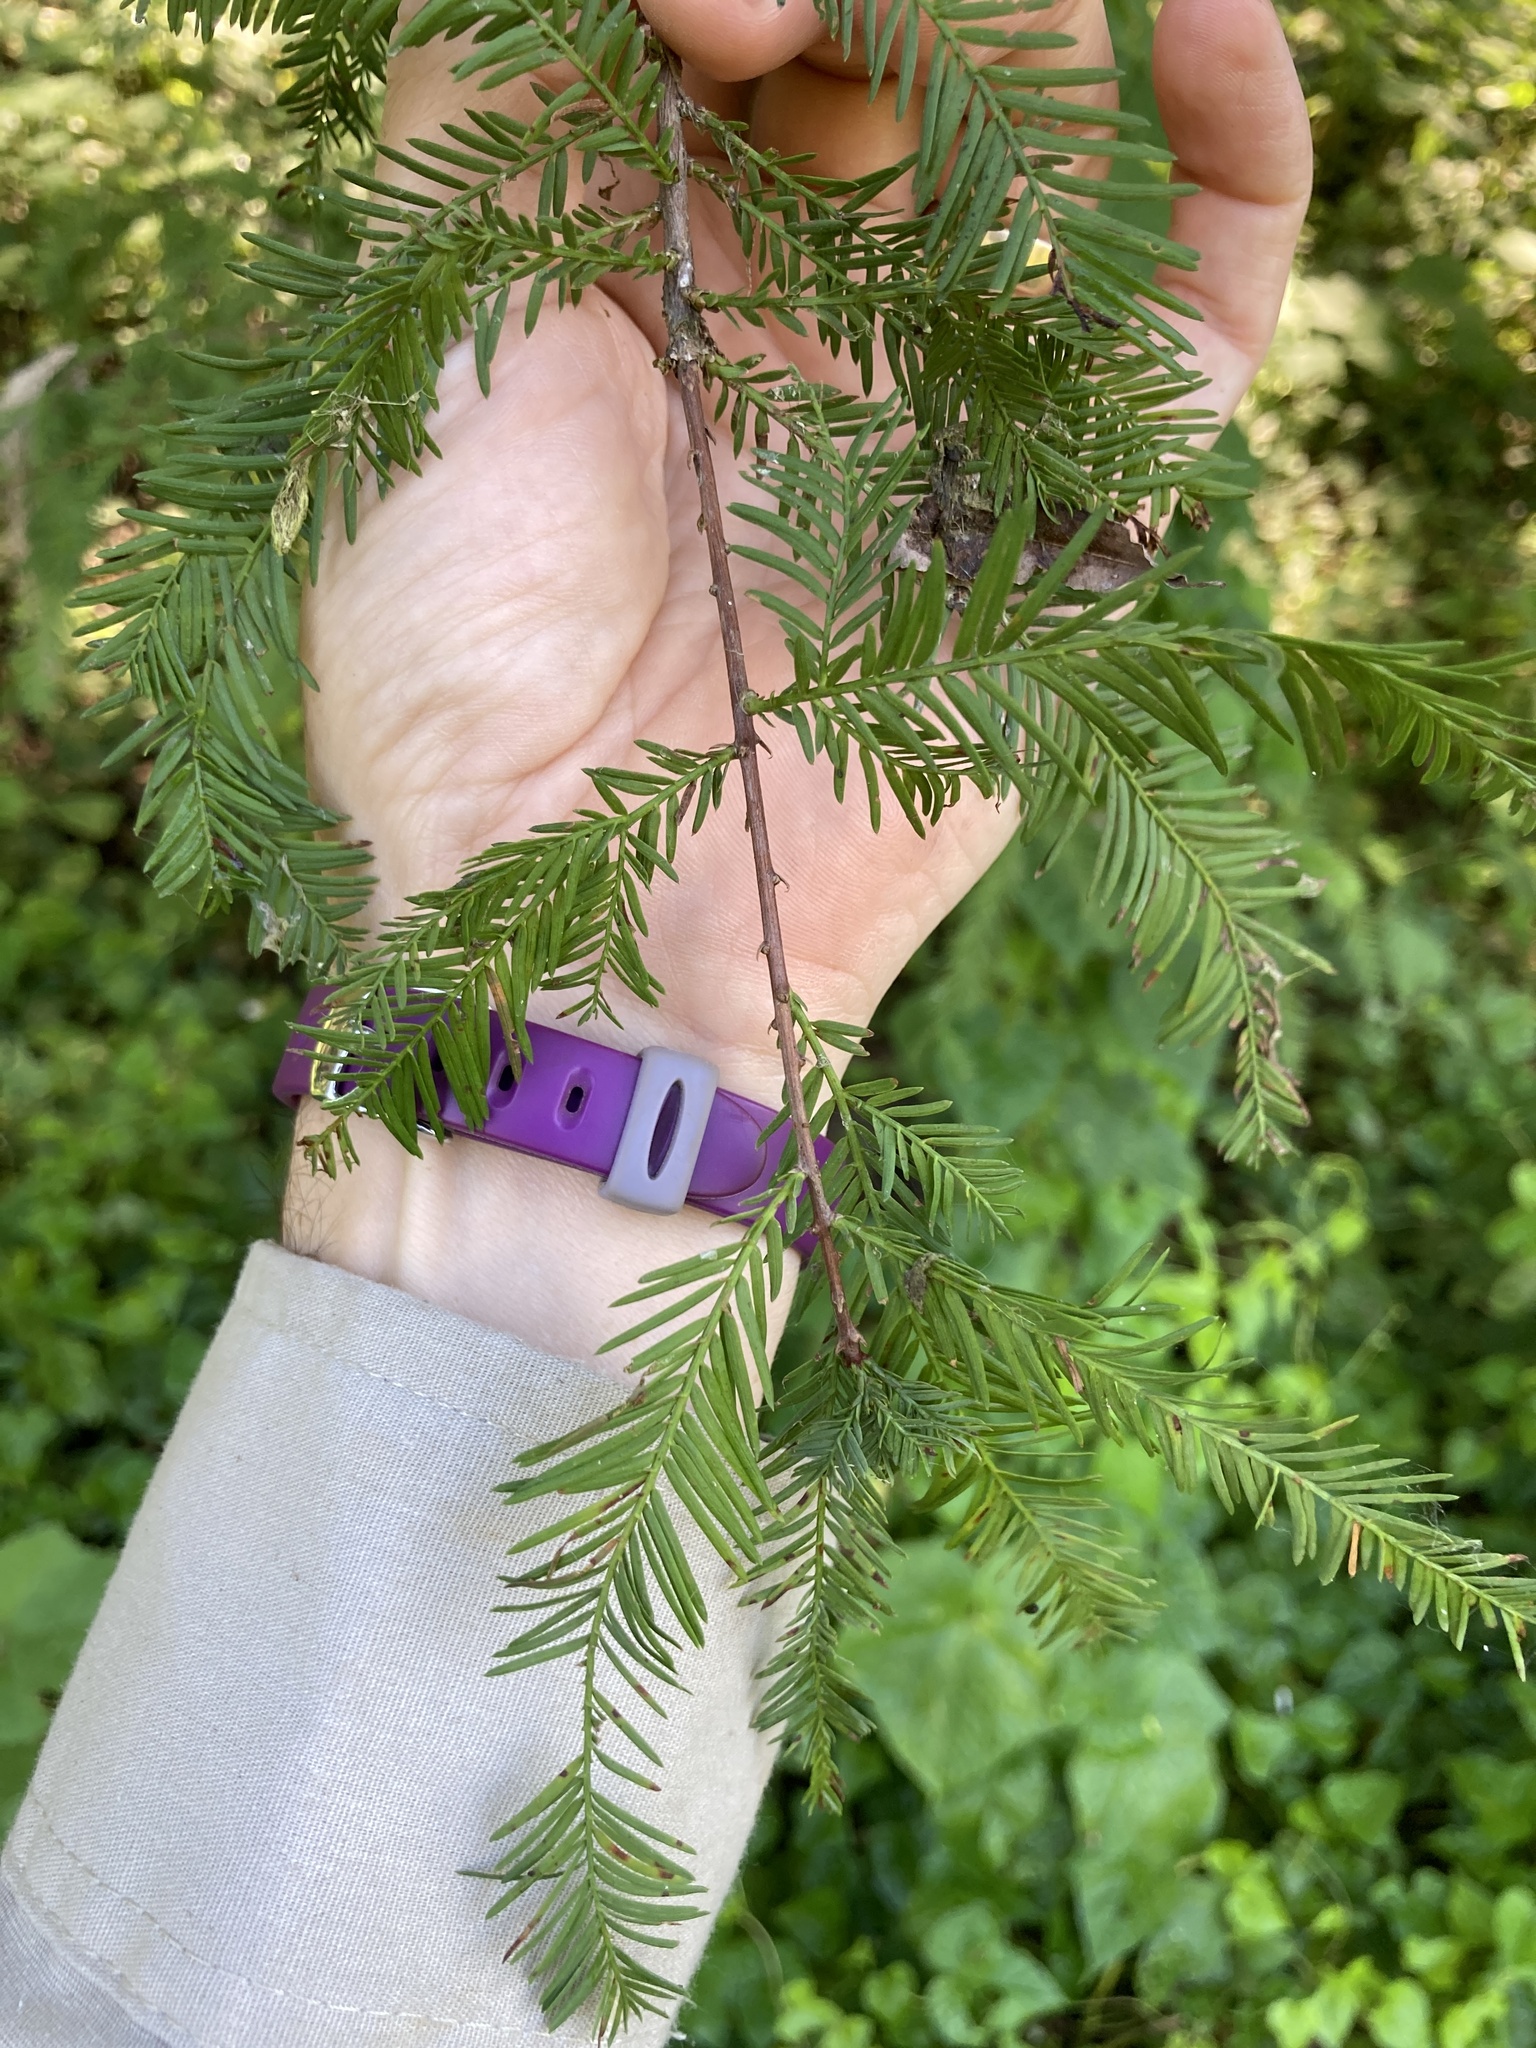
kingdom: Plantae
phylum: Tracheophyta
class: Pinopsida
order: Pinales
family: Cupressaceae
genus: Taxodium
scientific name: Taxodium distichum
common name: Bald cypress
